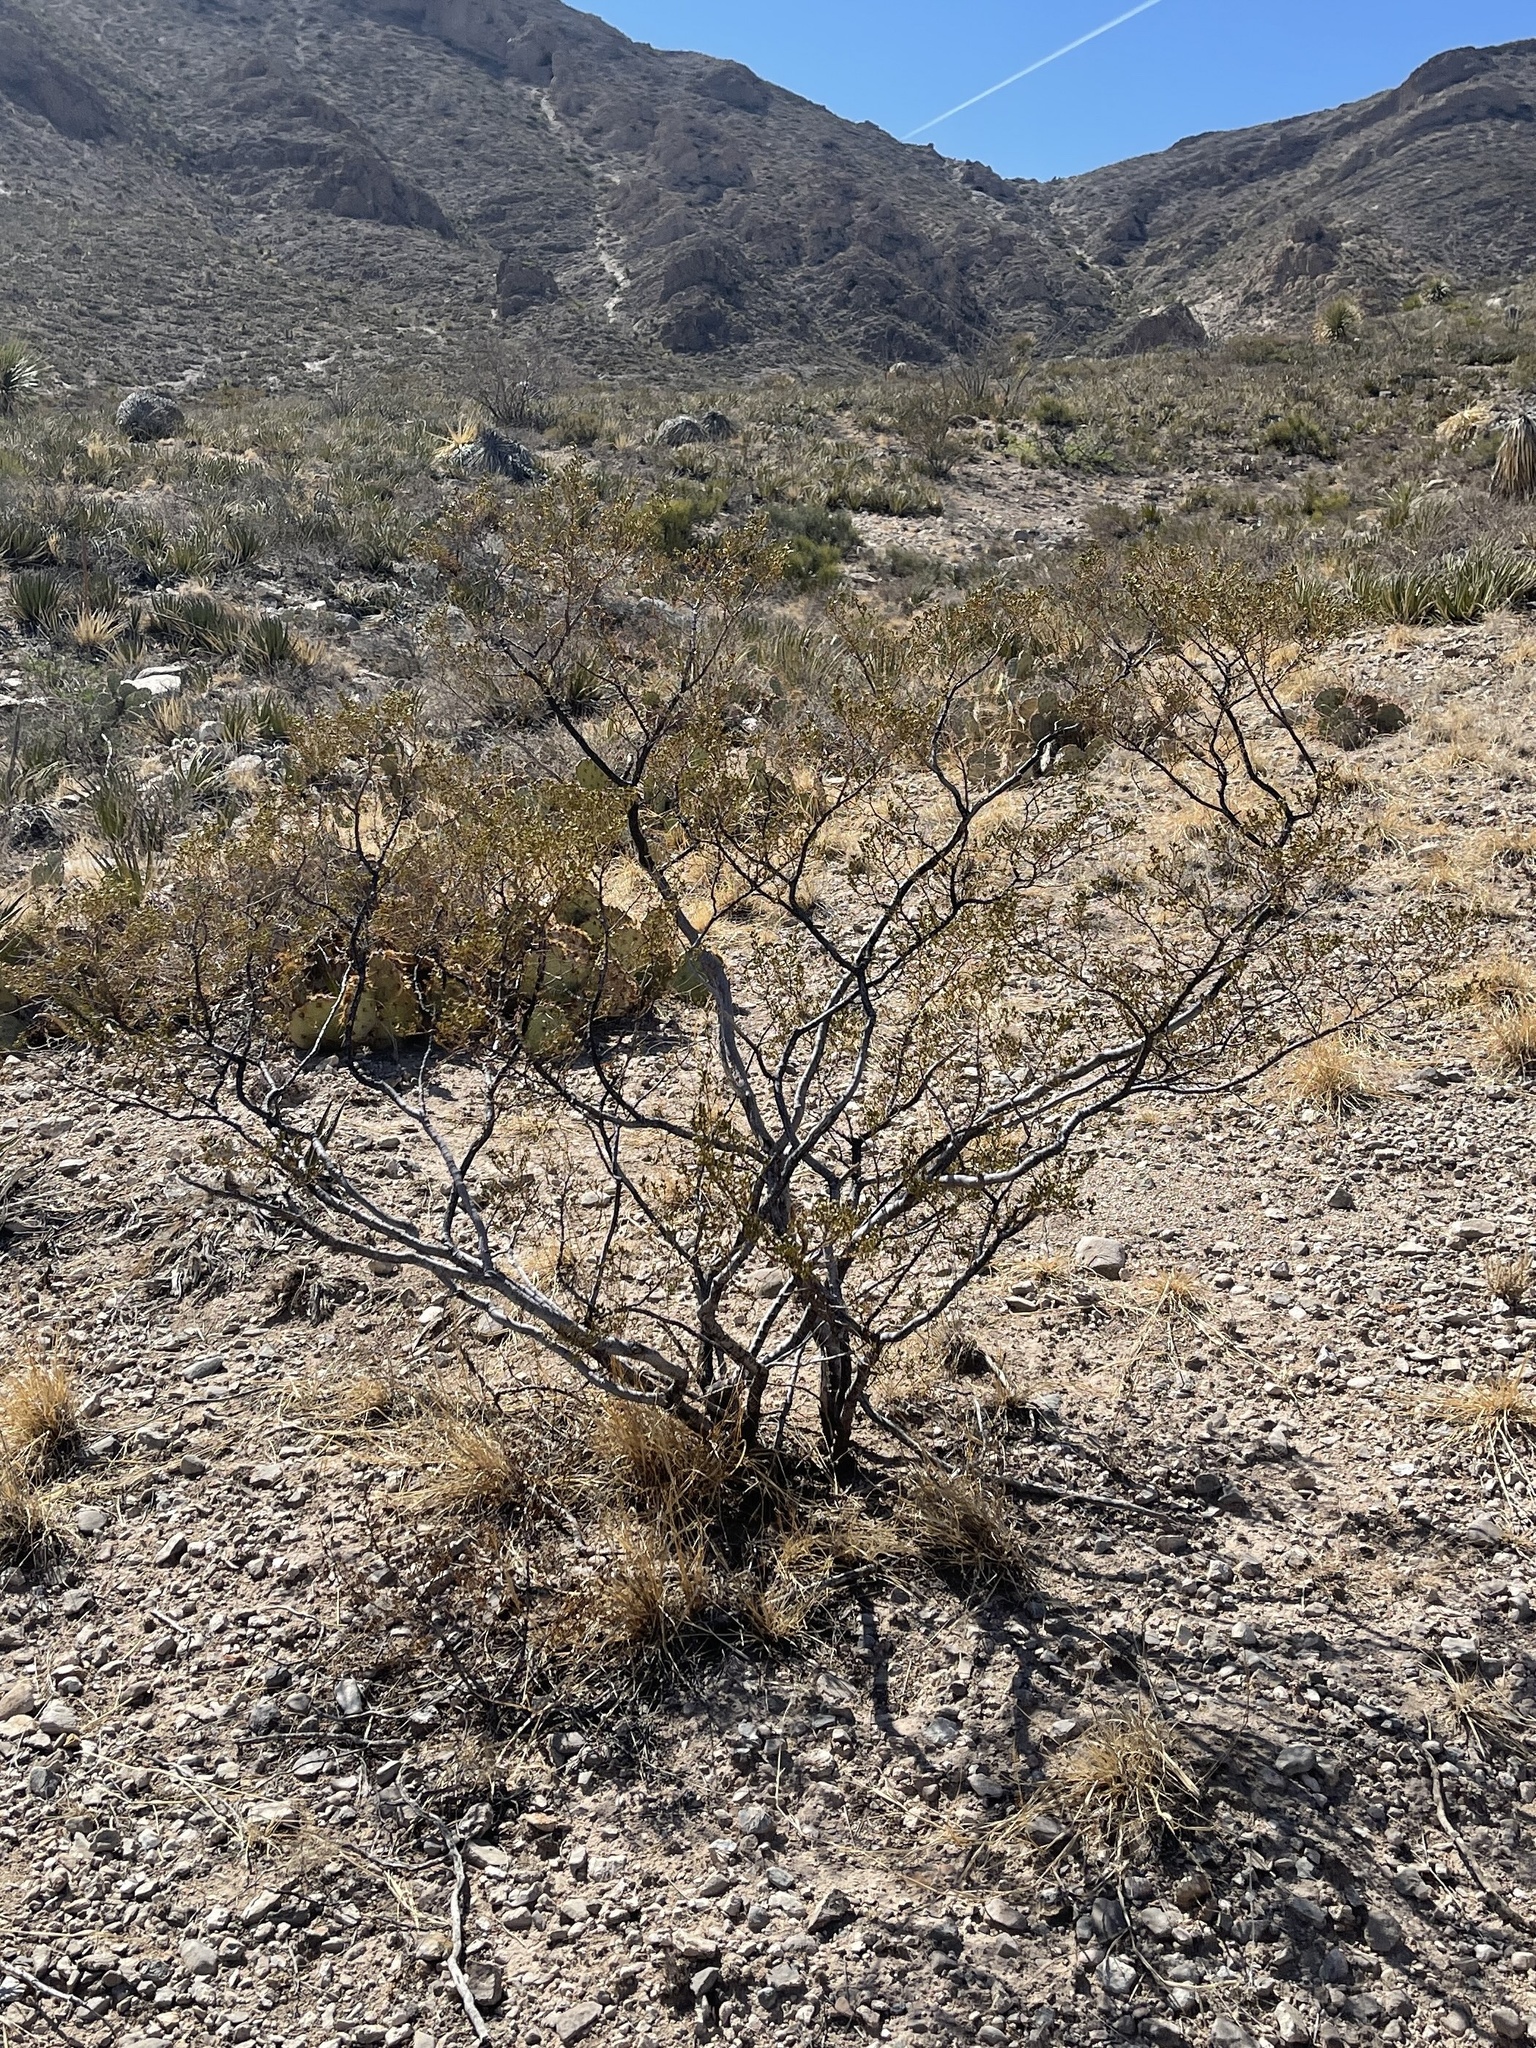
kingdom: Plantae
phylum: Tracheophyta
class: Magnoliopsida
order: Zygophyllales
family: Zygophyllaceae
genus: Larrea
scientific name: Larrea tridentata
